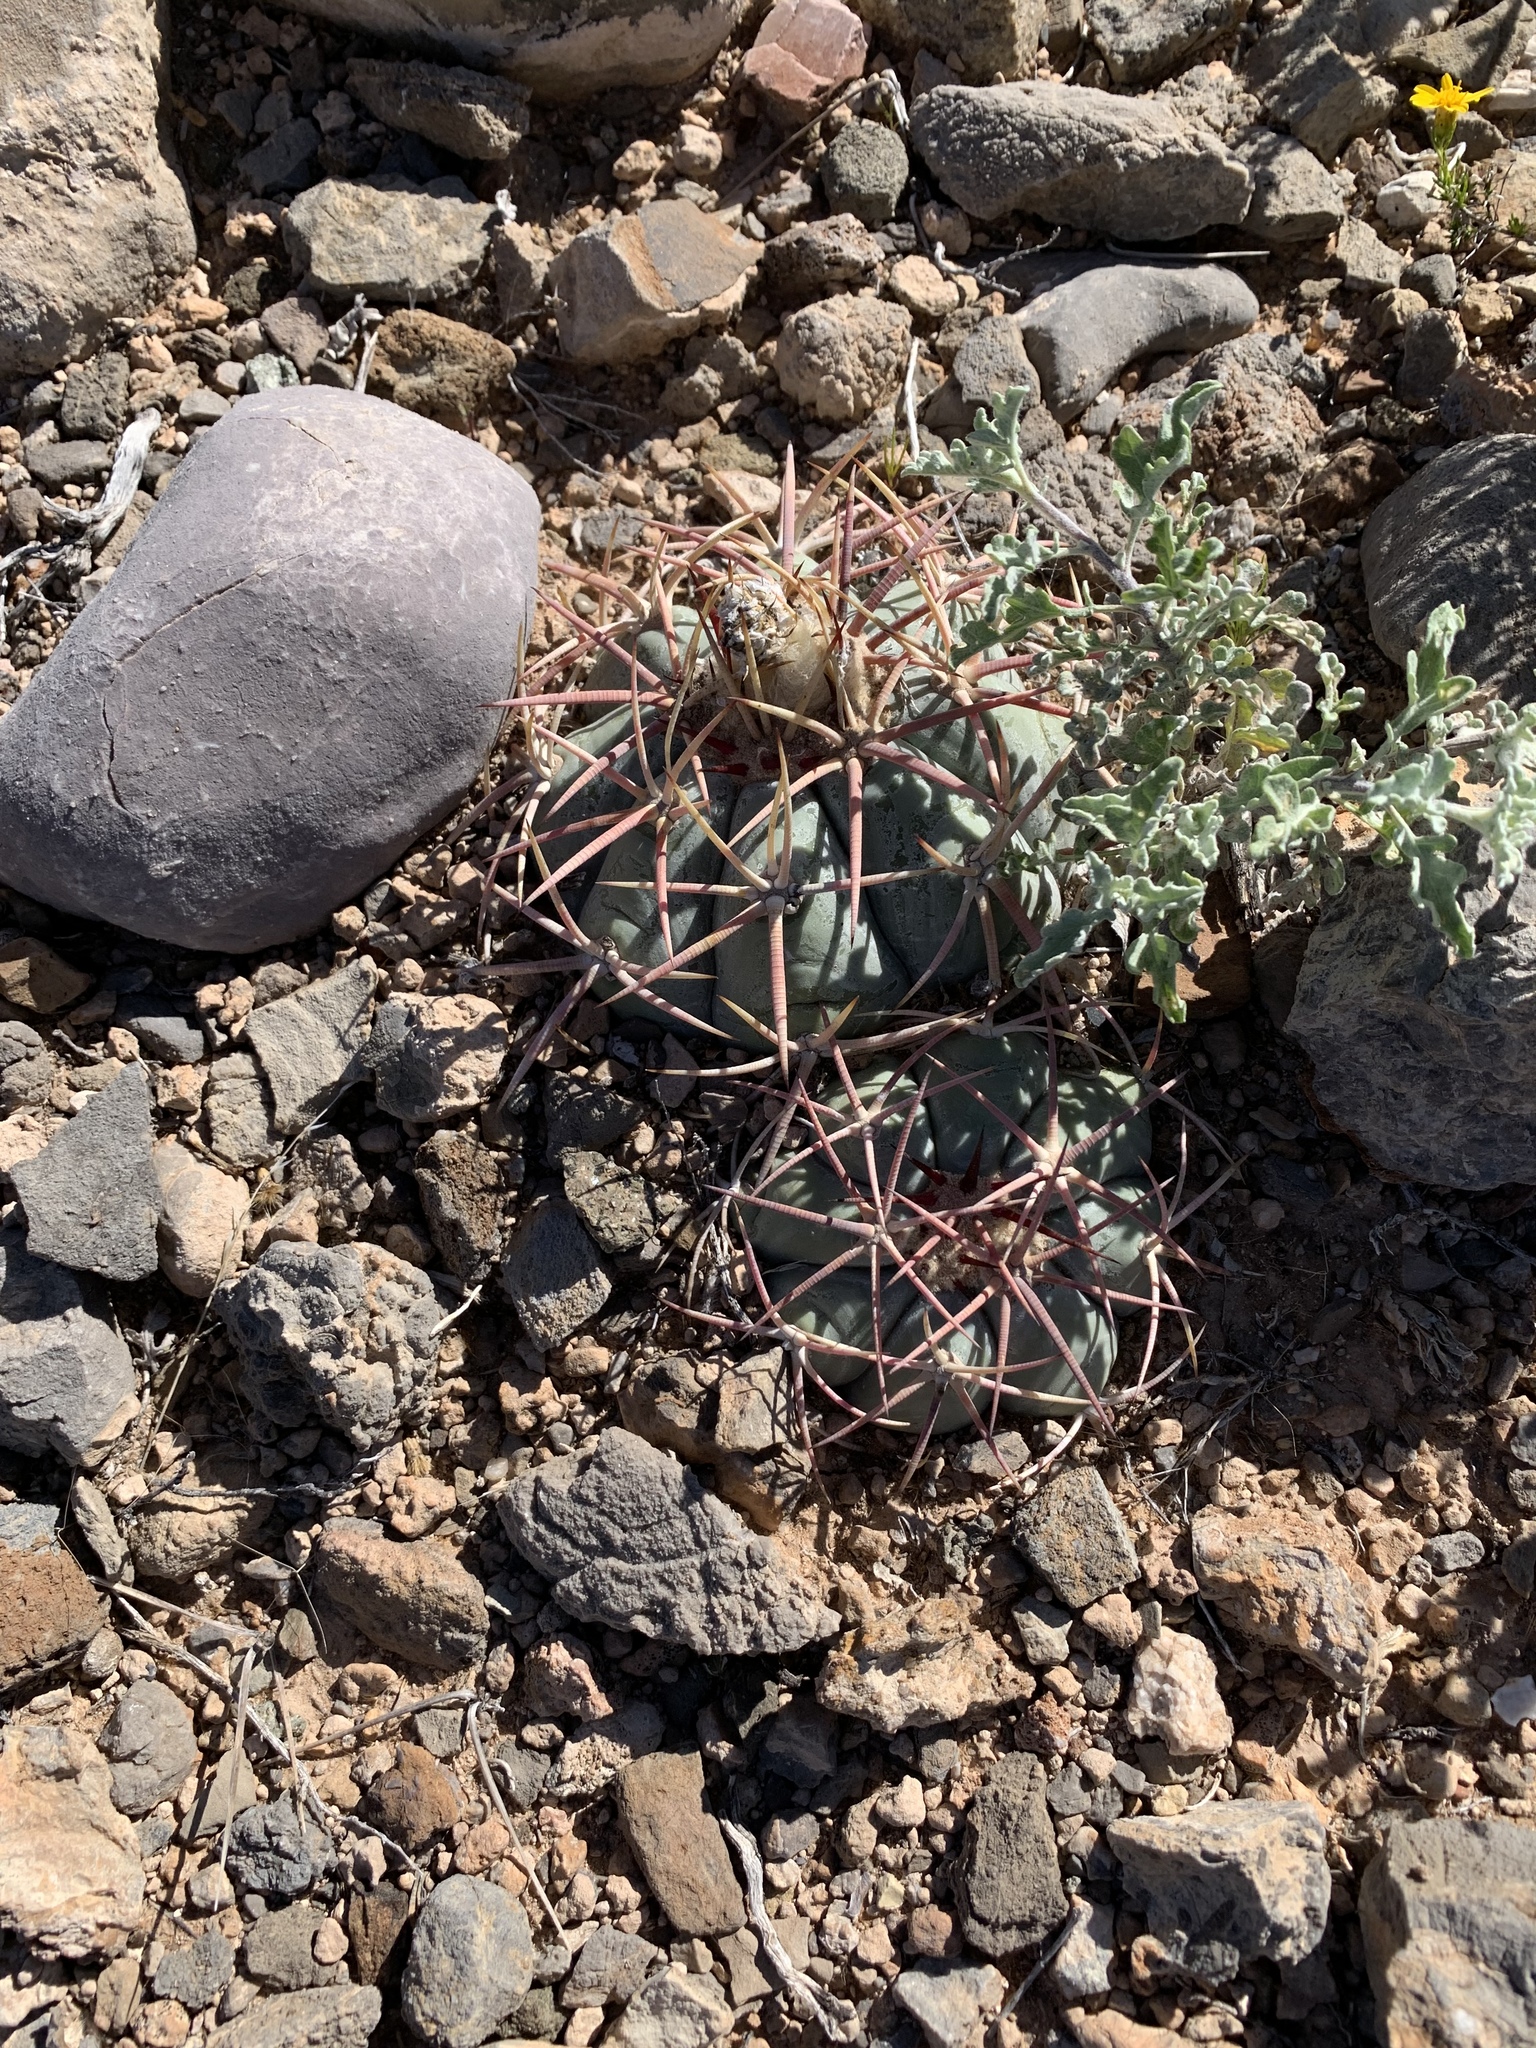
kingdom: Plantae
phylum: Tracheophyta
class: Magnoliopsida
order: Caryophyllales
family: Cactaceae
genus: Echinocactus
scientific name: Echinocactus horizonthalonius
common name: Devilshead
